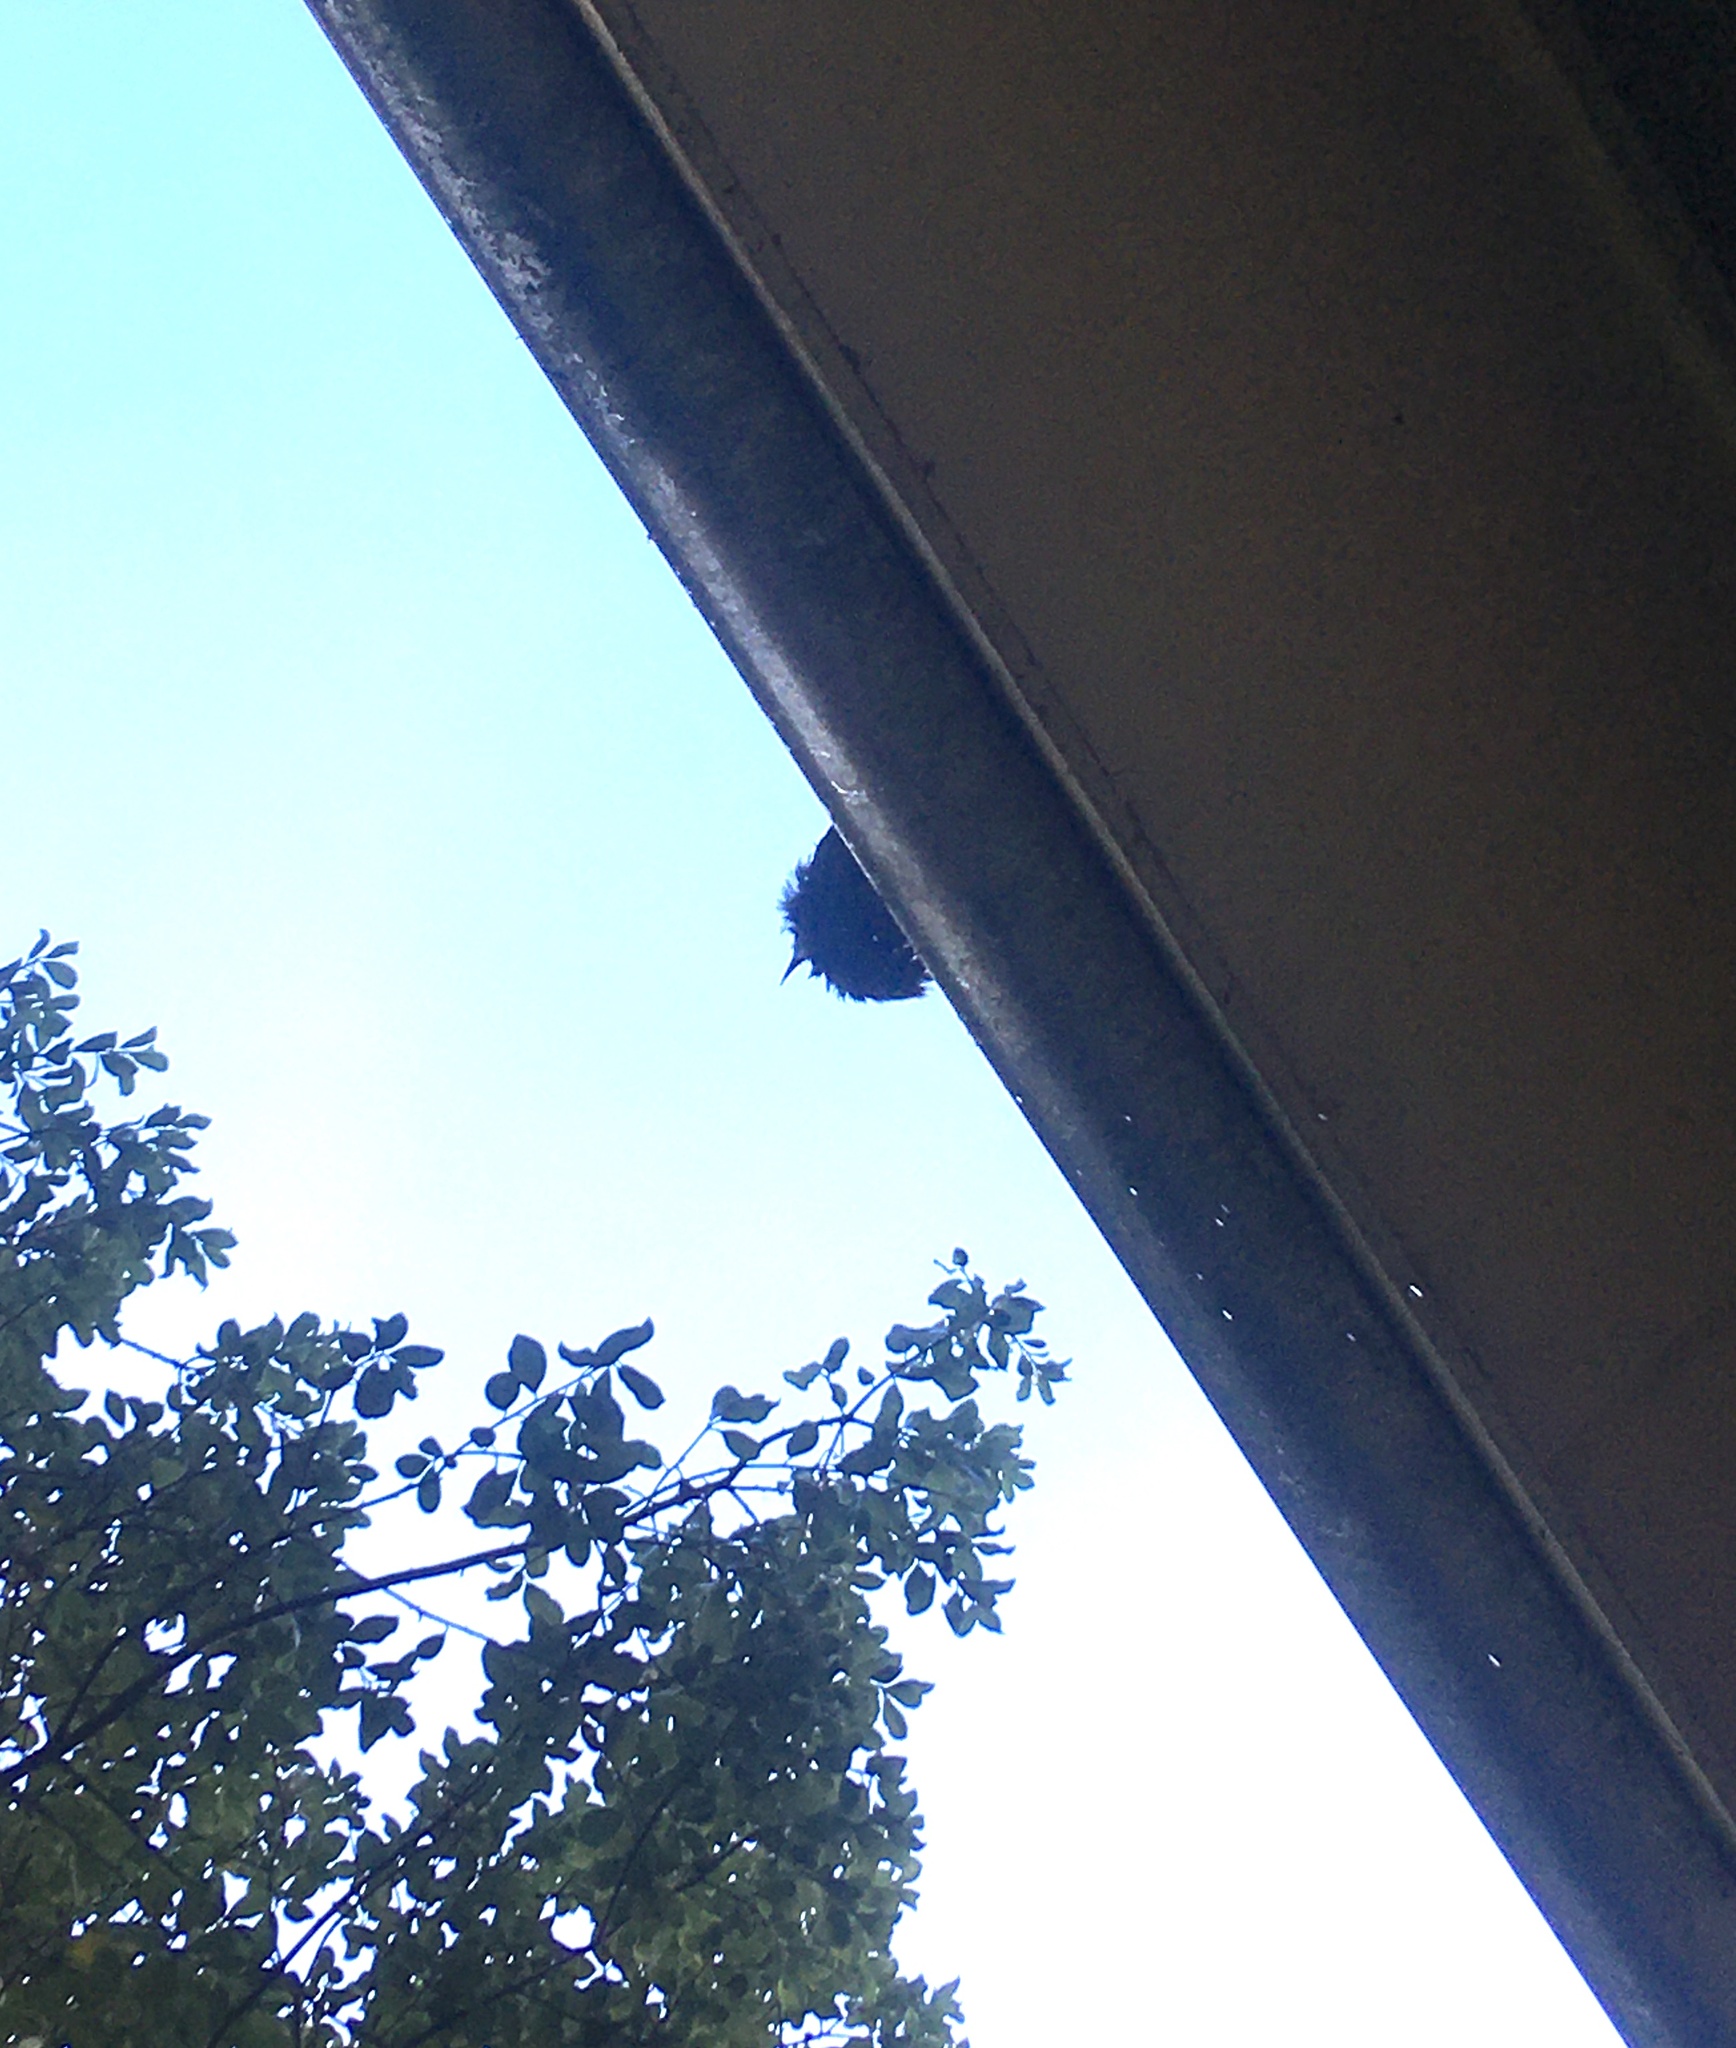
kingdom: Animalia
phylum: Chordata
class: Aves
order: Passeriformes
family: Meliphagidae
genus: Prosthemadera
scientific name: Prosthemadera novaeseelandiae
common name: Tui
